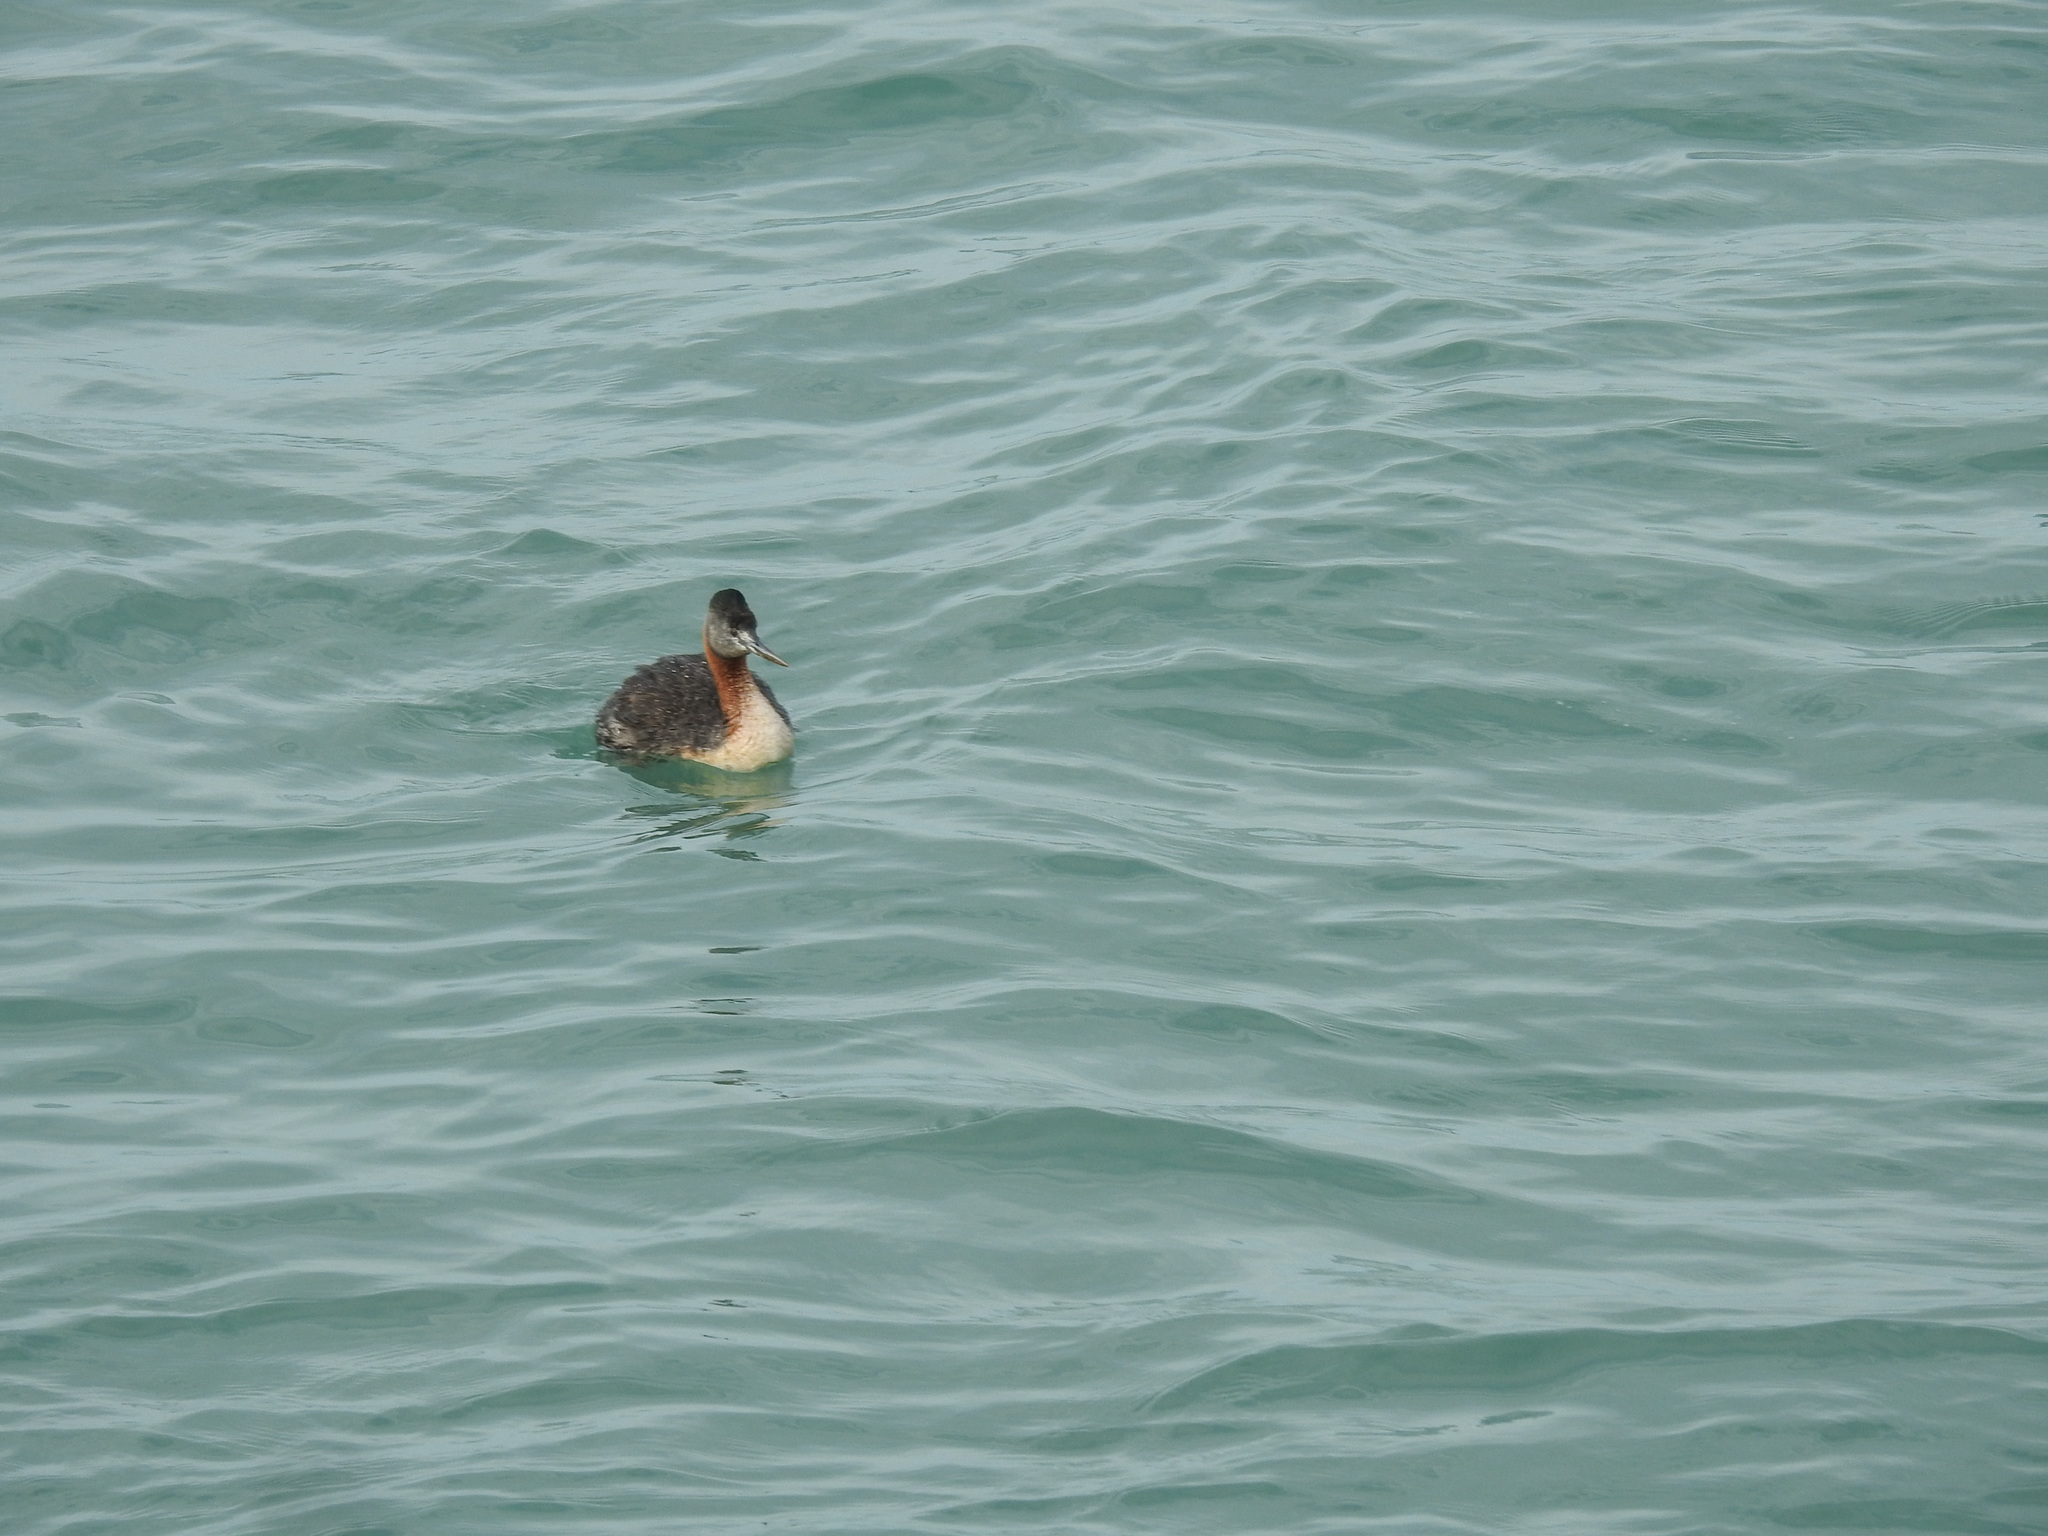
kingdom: Animalia
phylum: Chordata
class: Aves
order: Podicipediformes
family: Podicipedidae
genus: Podiceps
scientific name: Podiceps major
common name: Great grebe
